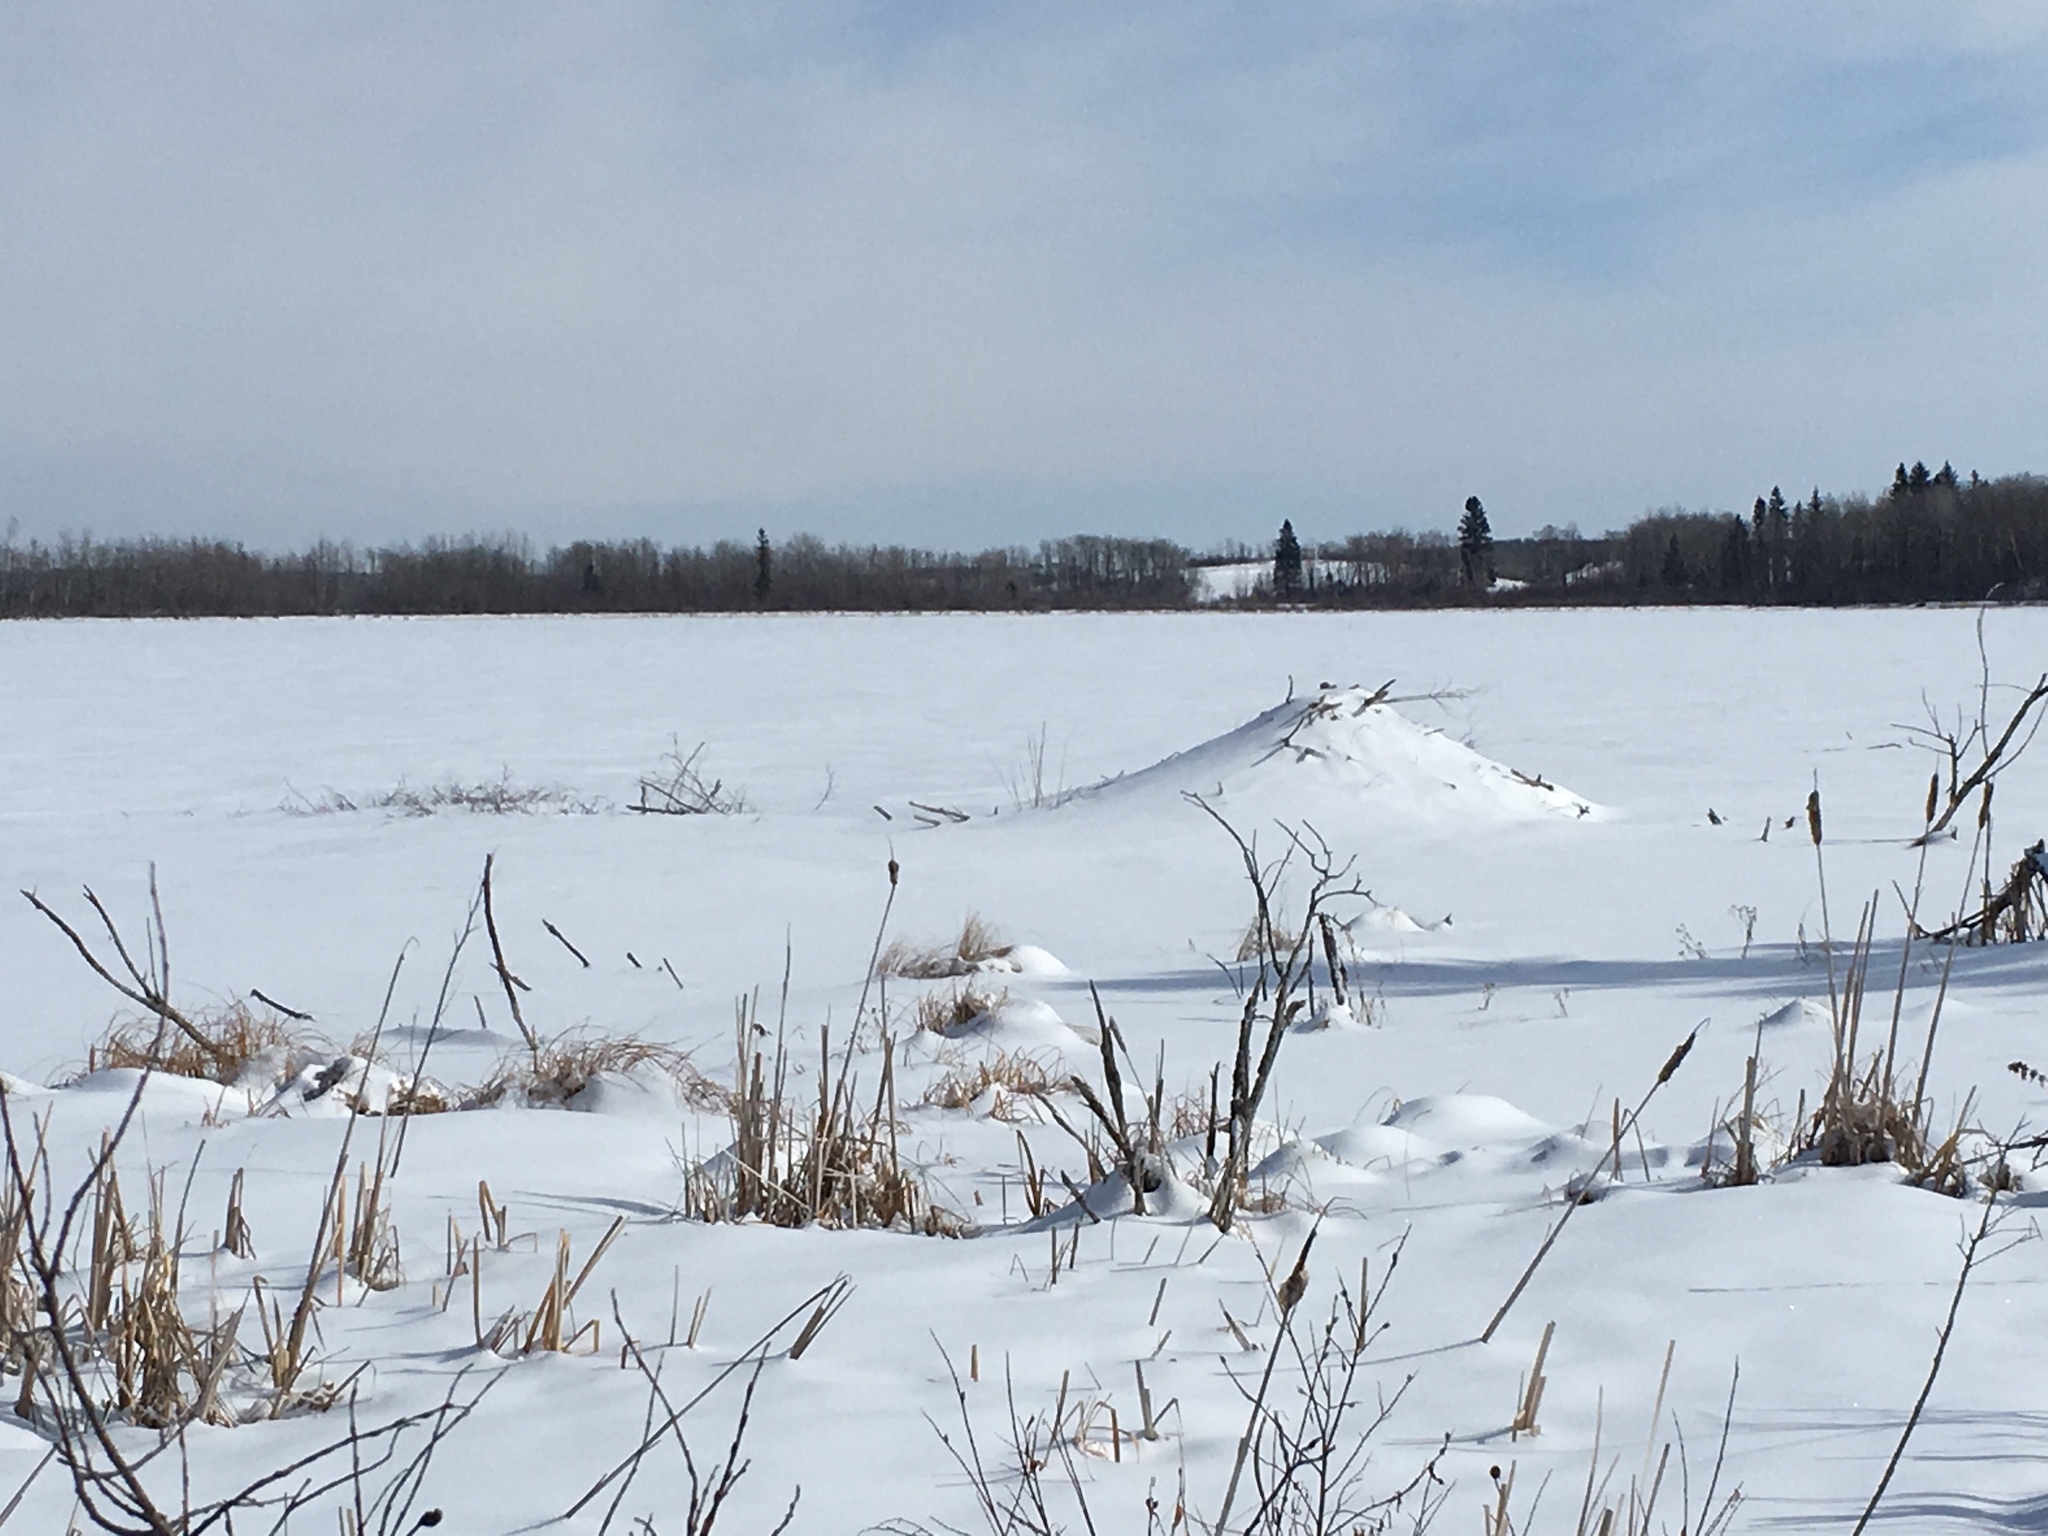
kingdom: Animalia
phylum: Chordata
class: Mammalia
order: Rodentia
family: Castoridae
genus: Castor
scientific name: Castor canadensis
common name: American beaver
